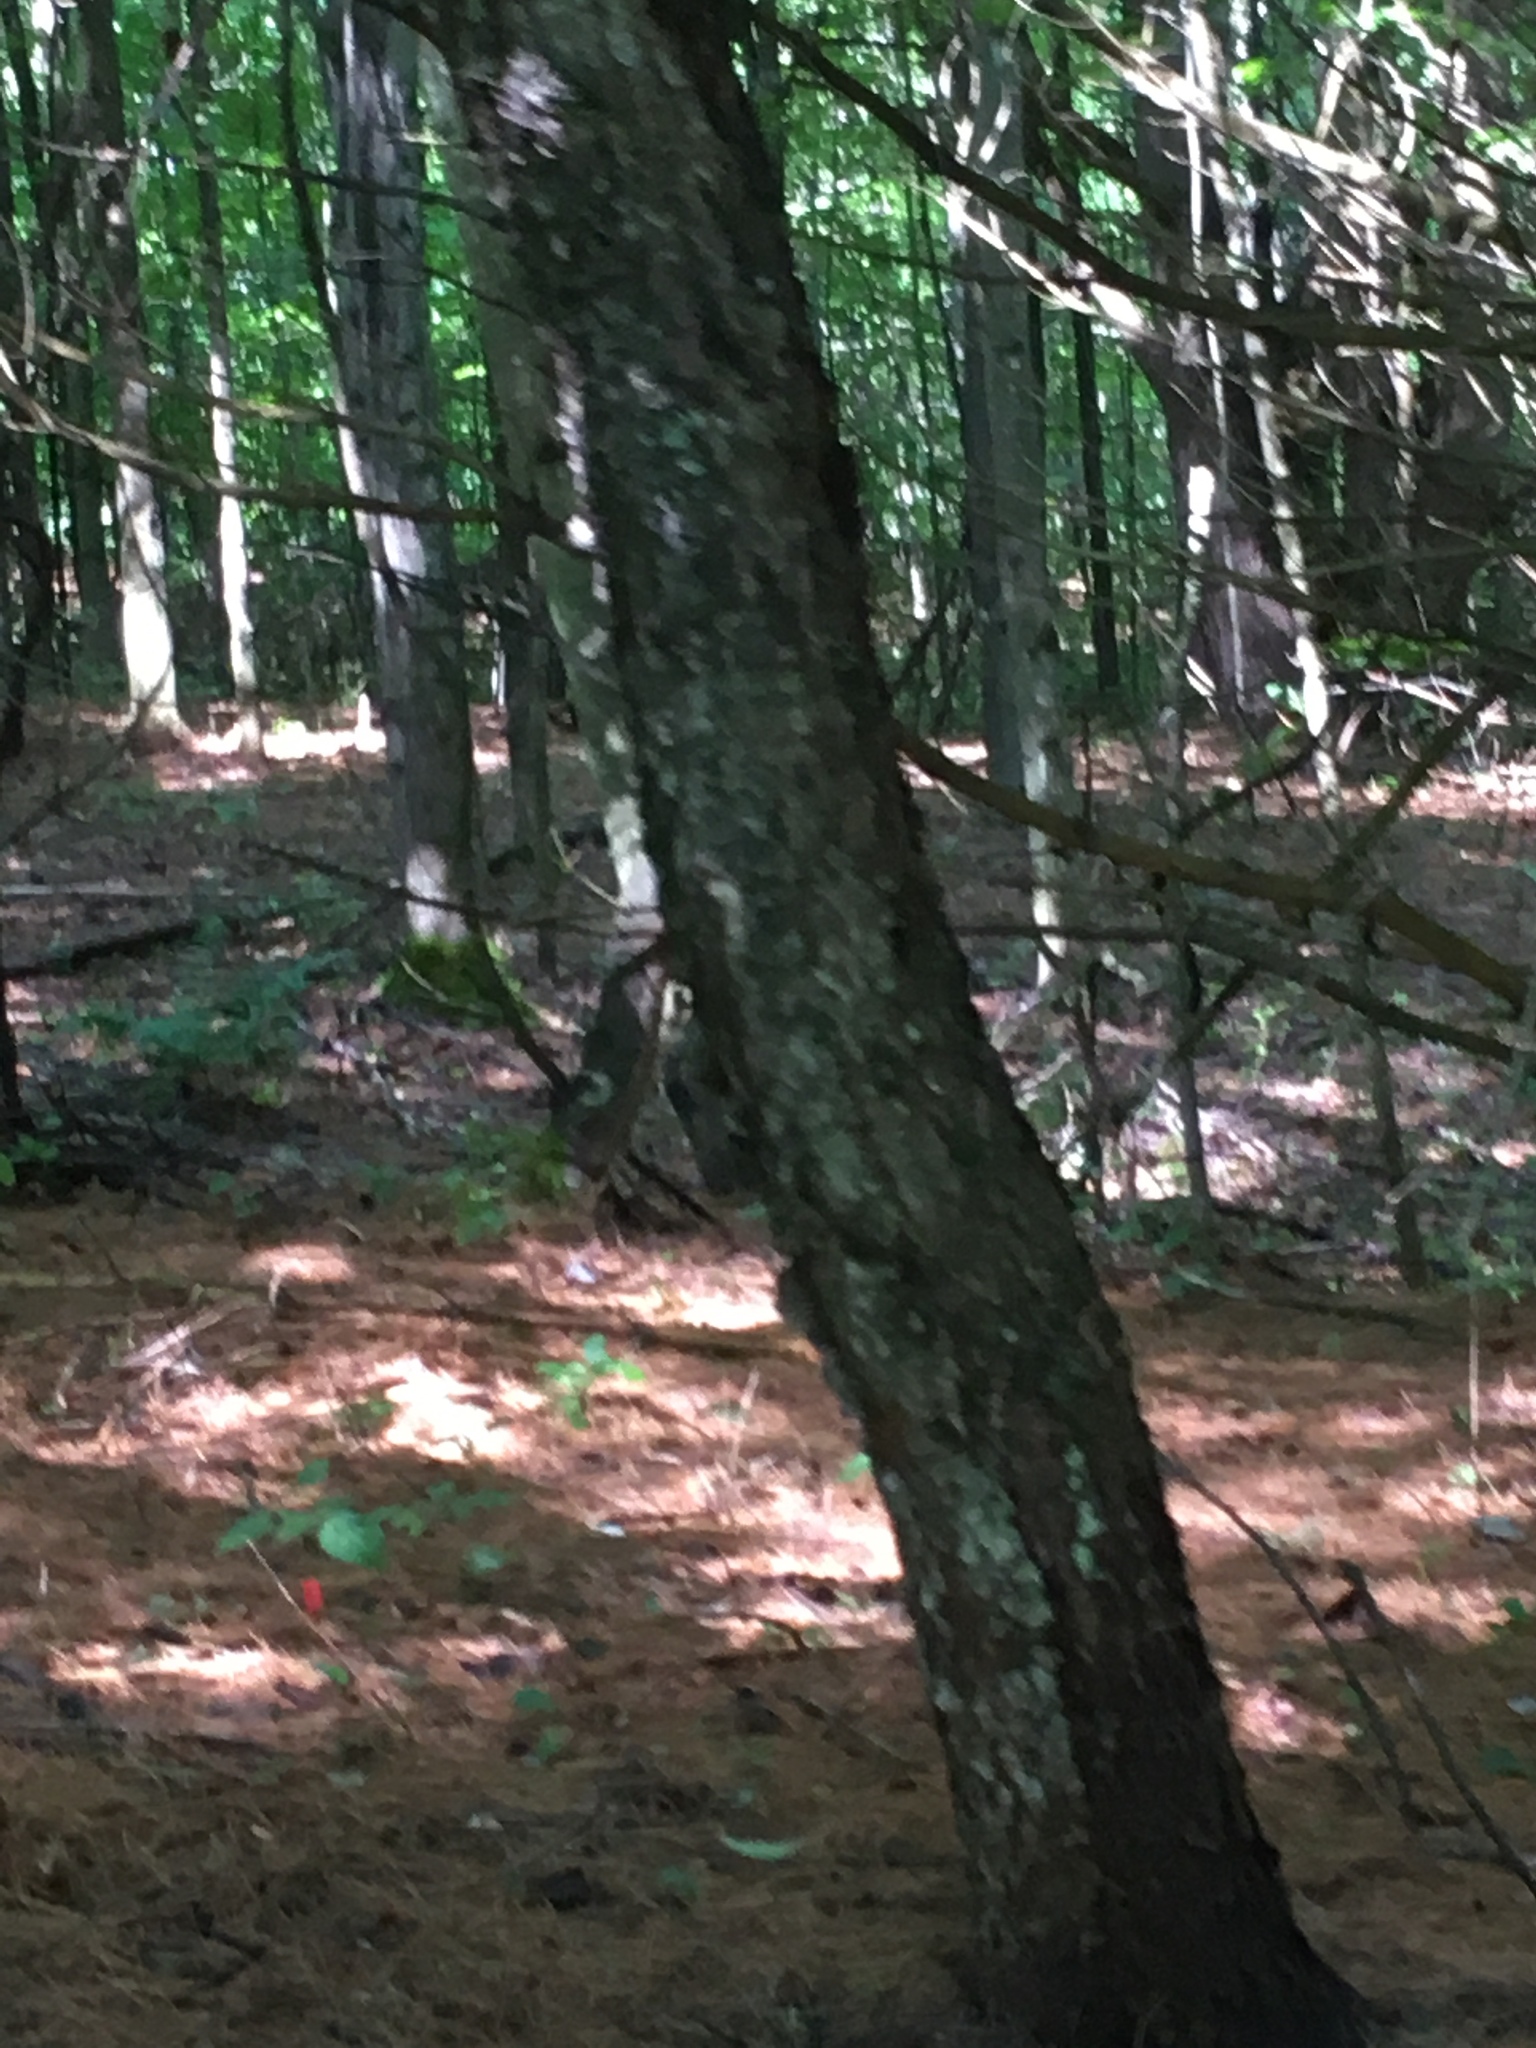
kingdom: Plantae
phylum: Tracheophyta
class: Magnoliopsida
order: Rosales
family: Rosaceae
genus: Prunus
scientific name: Prunus serotina
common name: Black cherry
